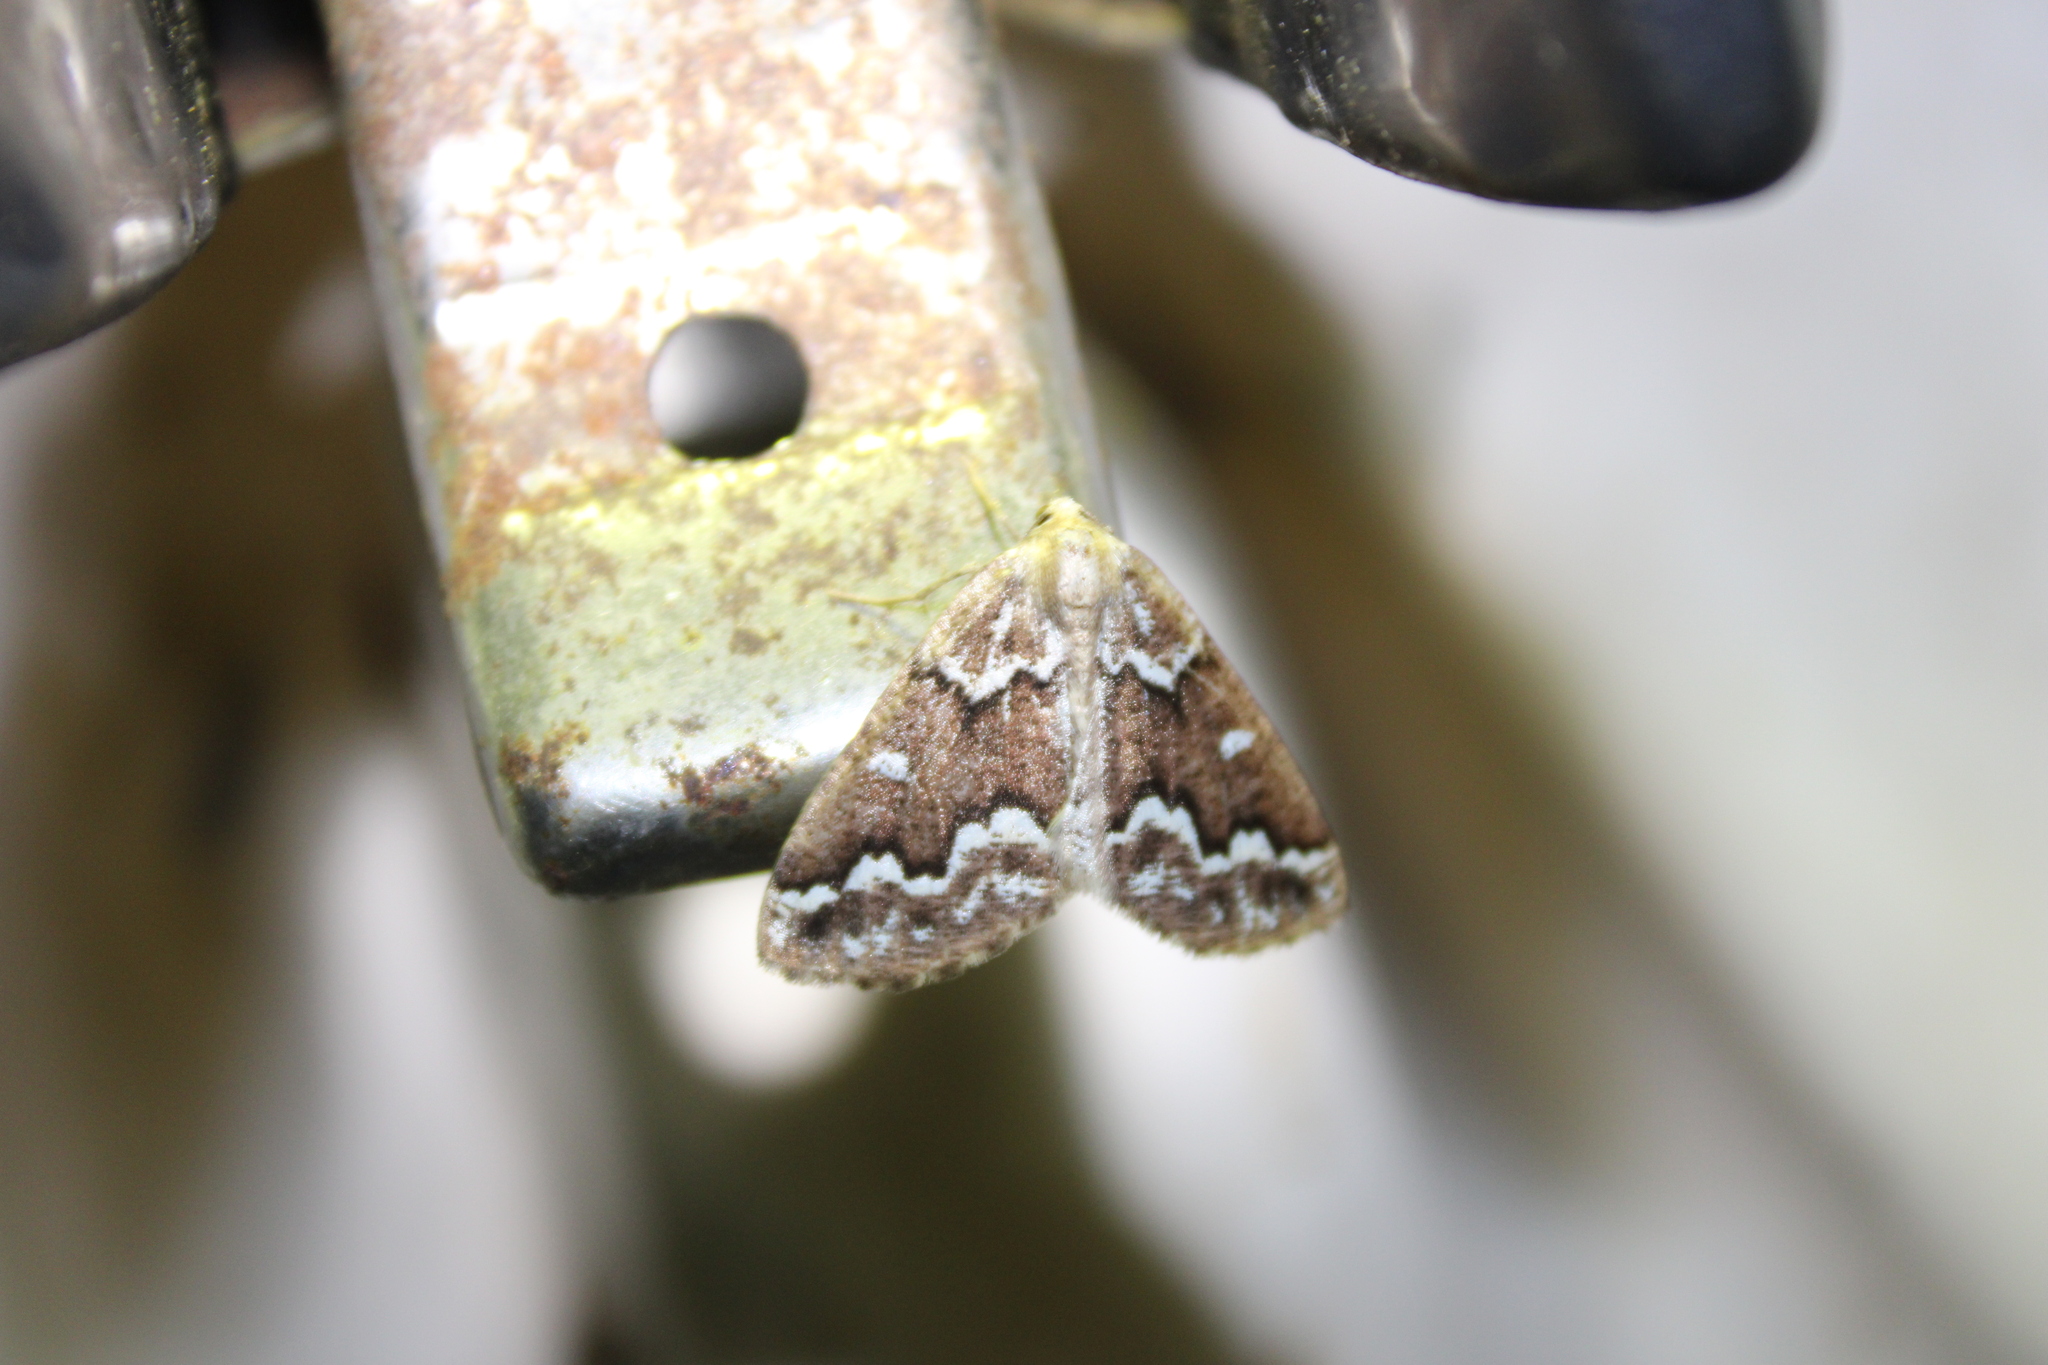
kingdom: Animalia
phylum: Arthropoda
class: Insecta
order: Lepidoptera
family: Geometridae
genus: Caripeta
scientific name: Caripeta divisata
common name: Gray spruce looper
